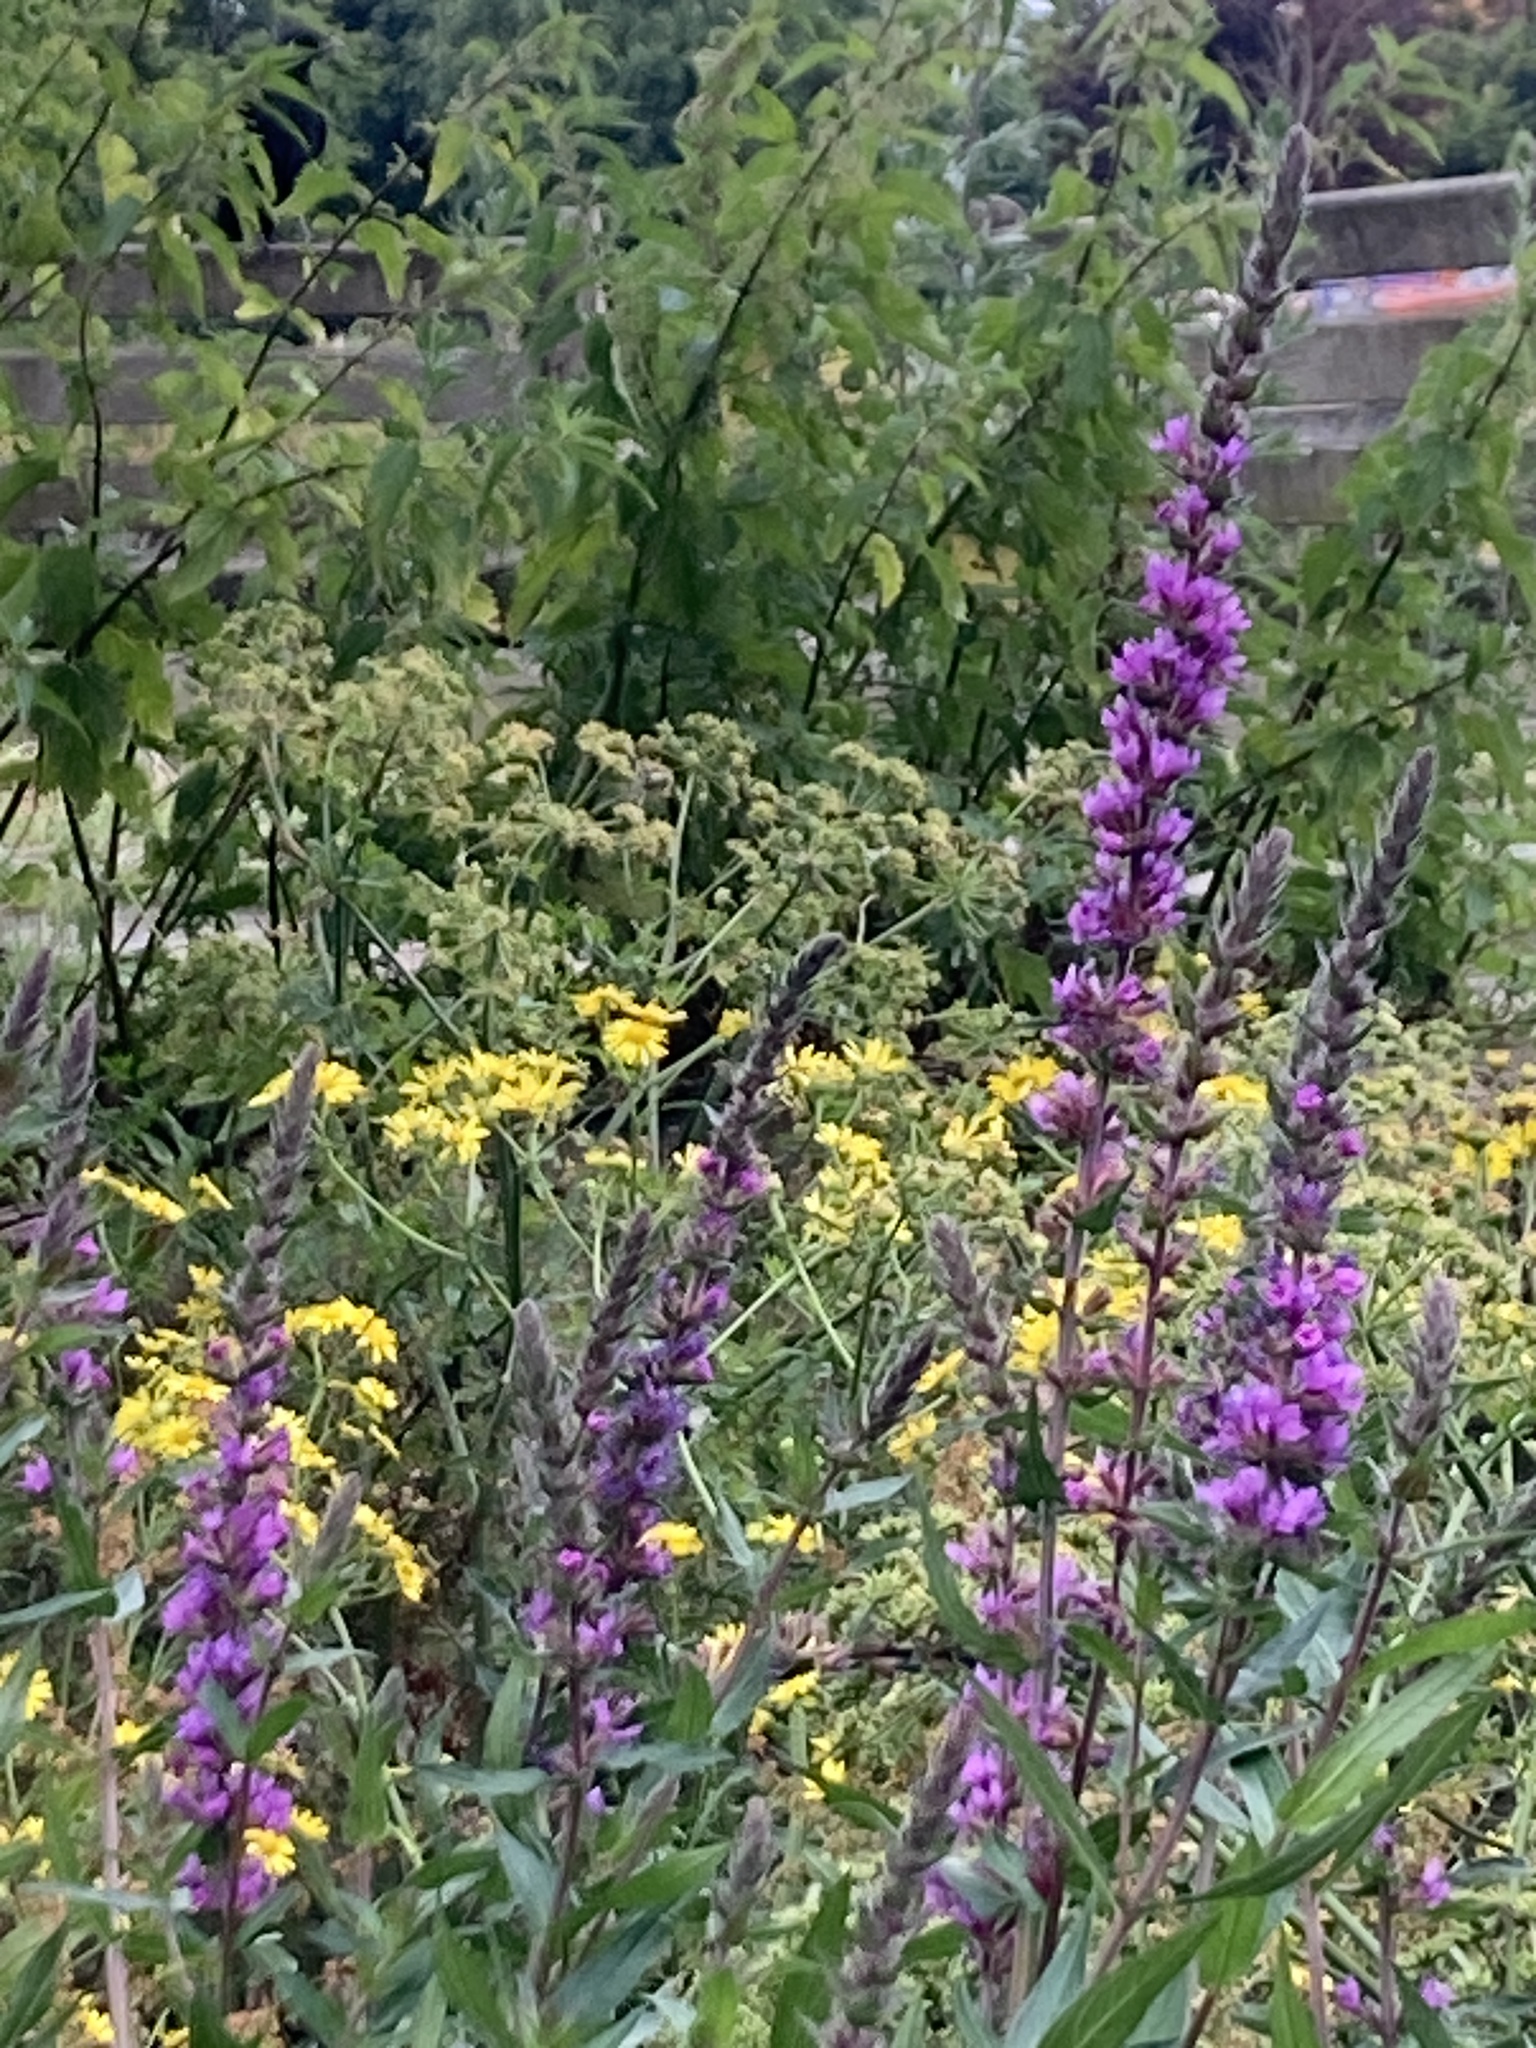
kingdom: Plantae
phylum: Tracheophyta
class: Magnoliopsida
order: Myrtales
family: Lythraceae
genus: Lythrum
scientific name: Lythrum salicaria
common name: Purple loosestrife
